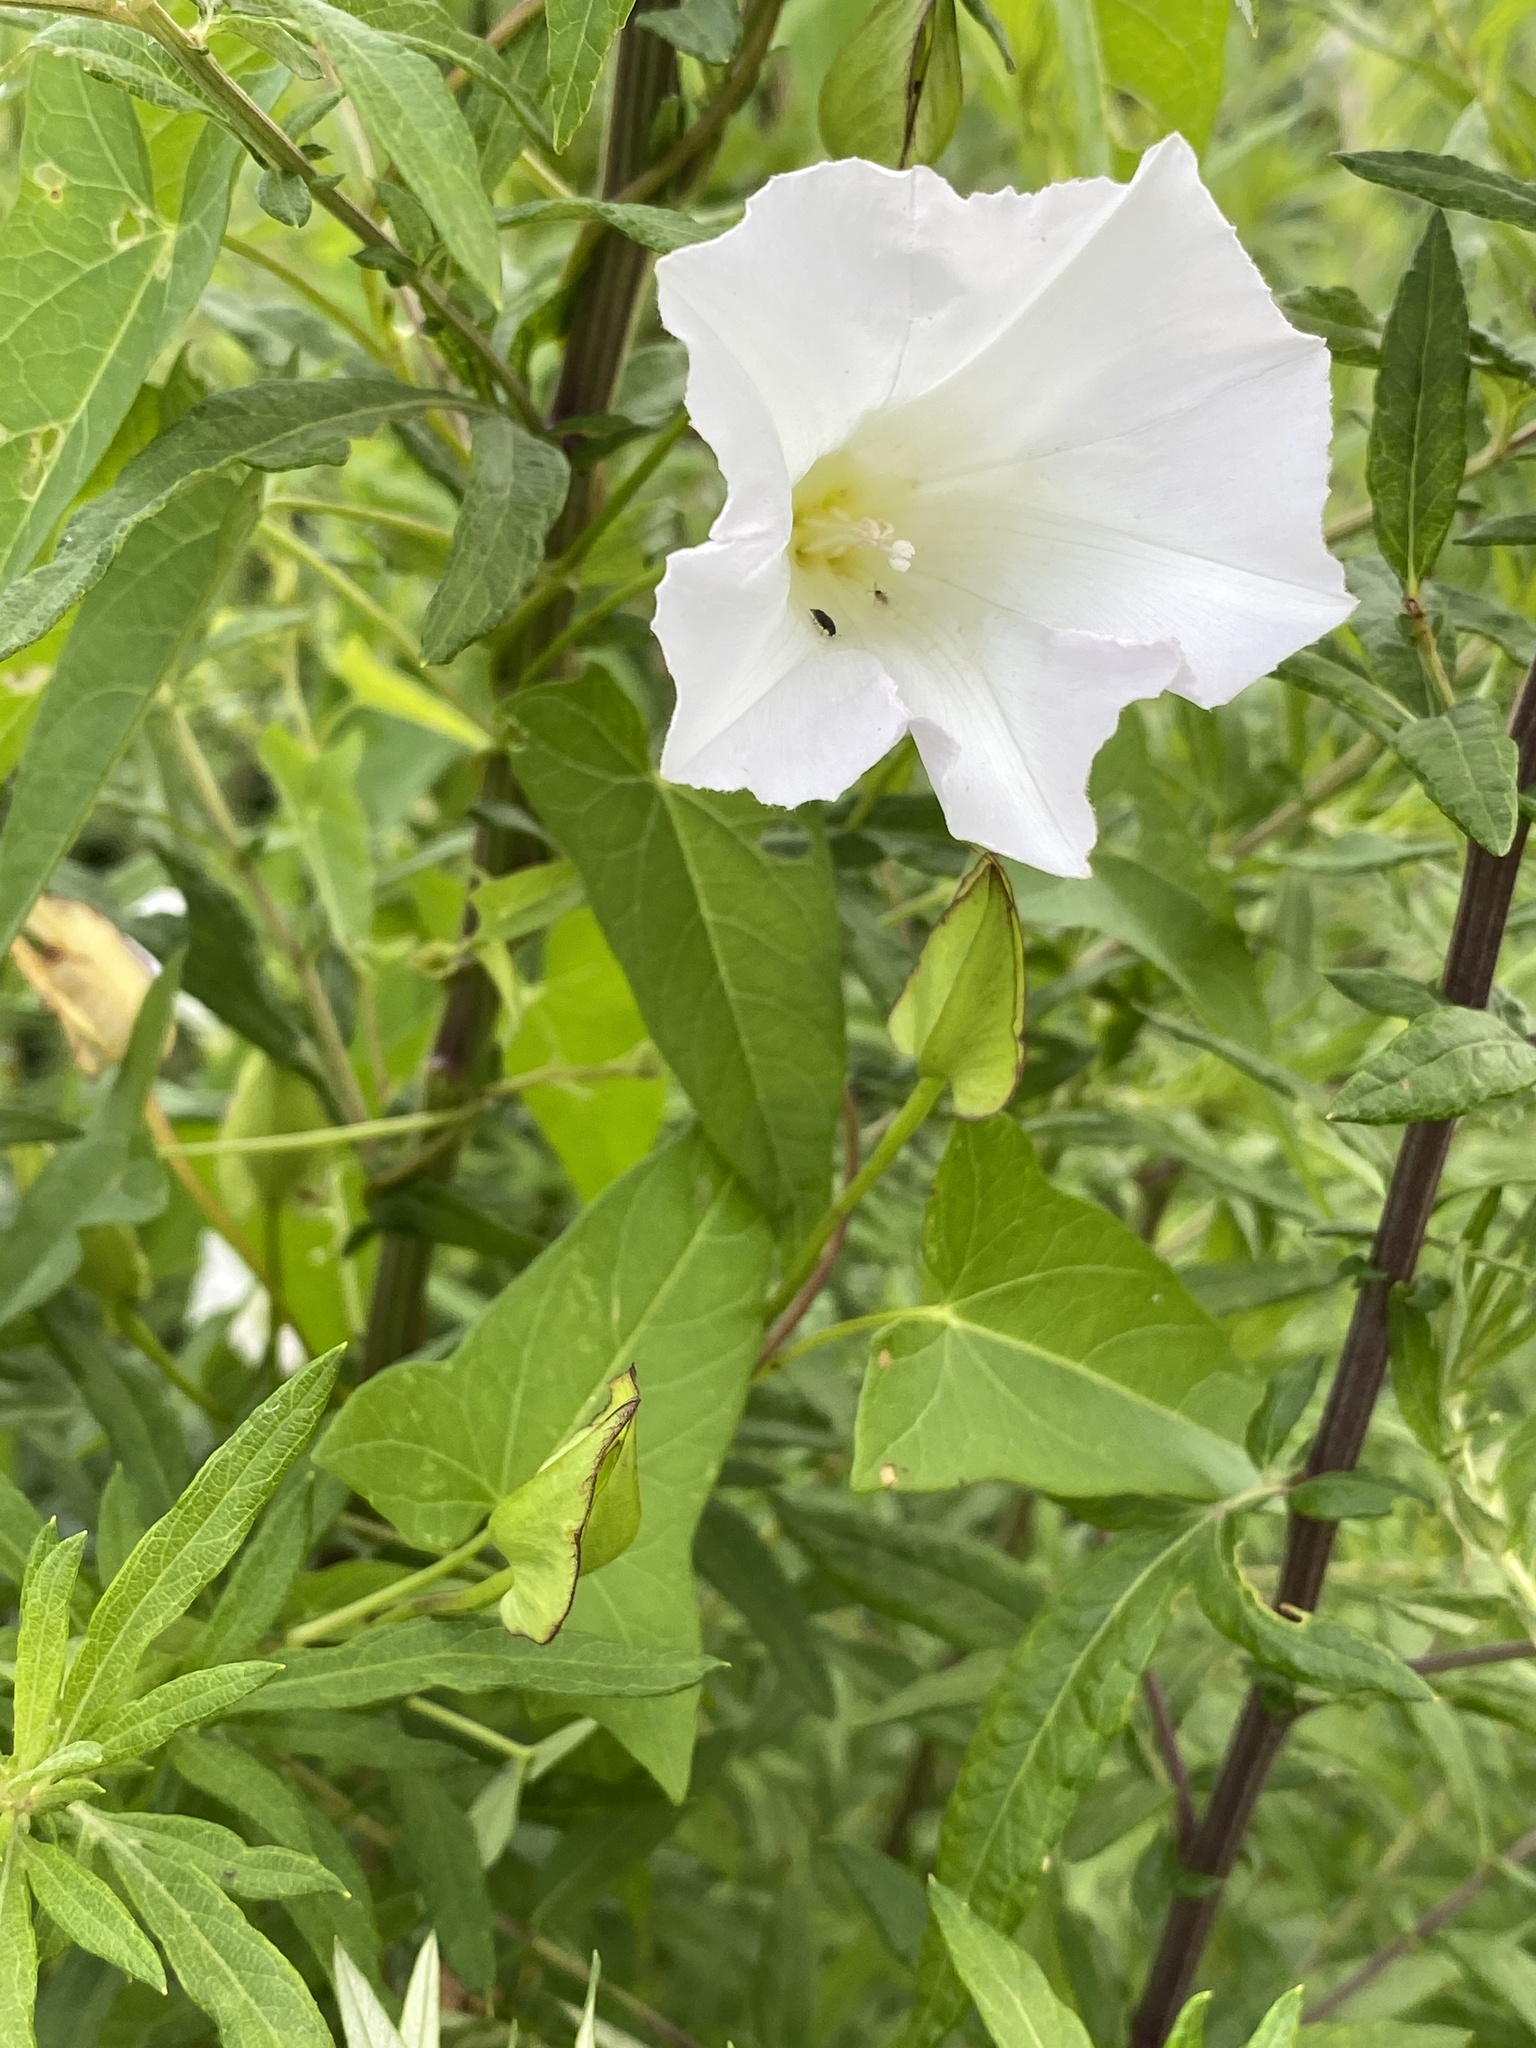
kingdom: Plantae
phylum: Tracheophyta
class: Magnoliopsida
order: Solanales
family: Convolvulaceae
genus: Calystegia
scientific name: Calystegia sepium
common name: Hedge bindweed
